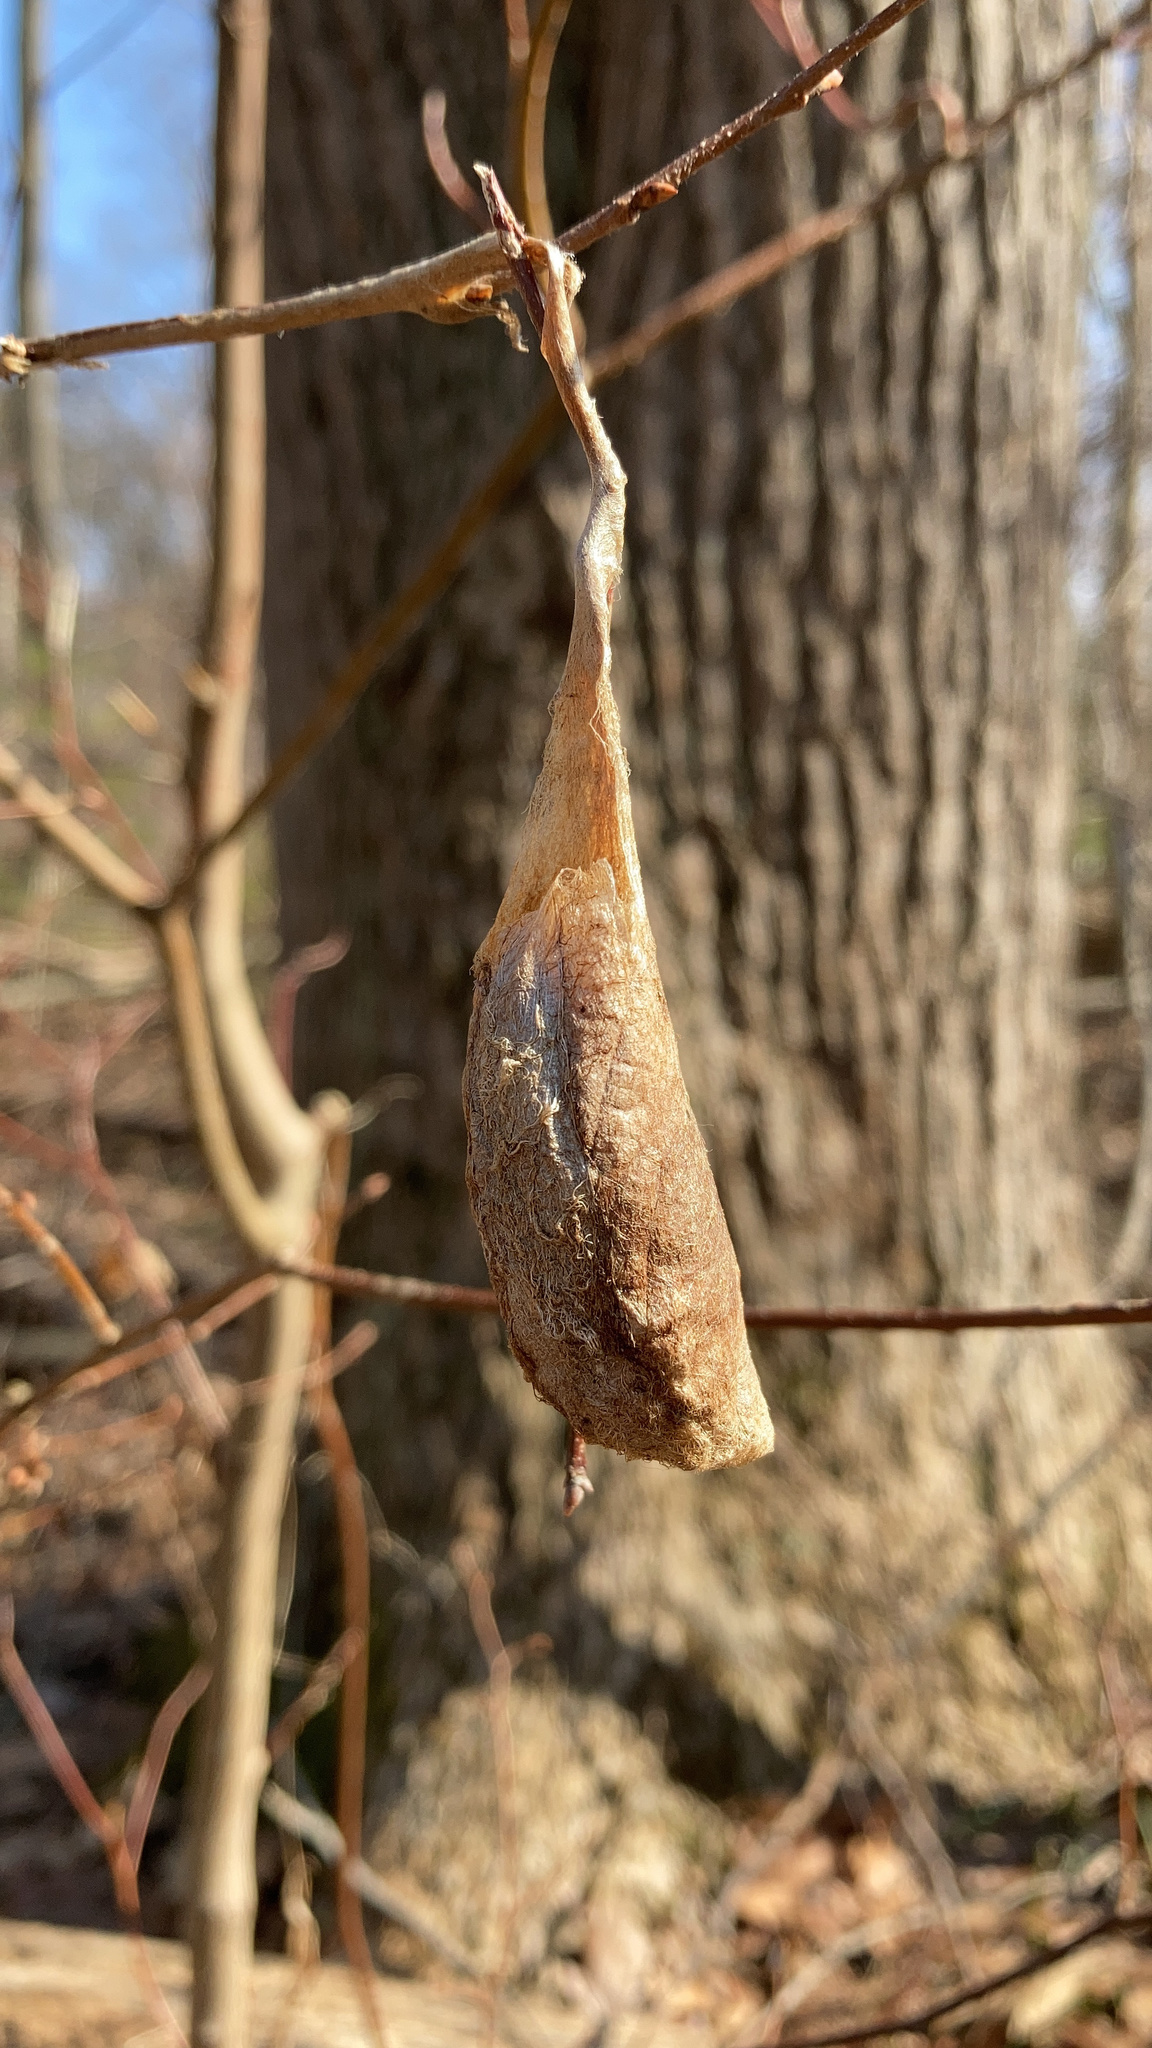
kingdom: Animalia
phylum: Arthropoda
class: Insecta
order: Lepidoptera
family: Saturniidae
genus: Callosamia
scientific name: Callosamia promethea
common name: Promethea silkmoth
